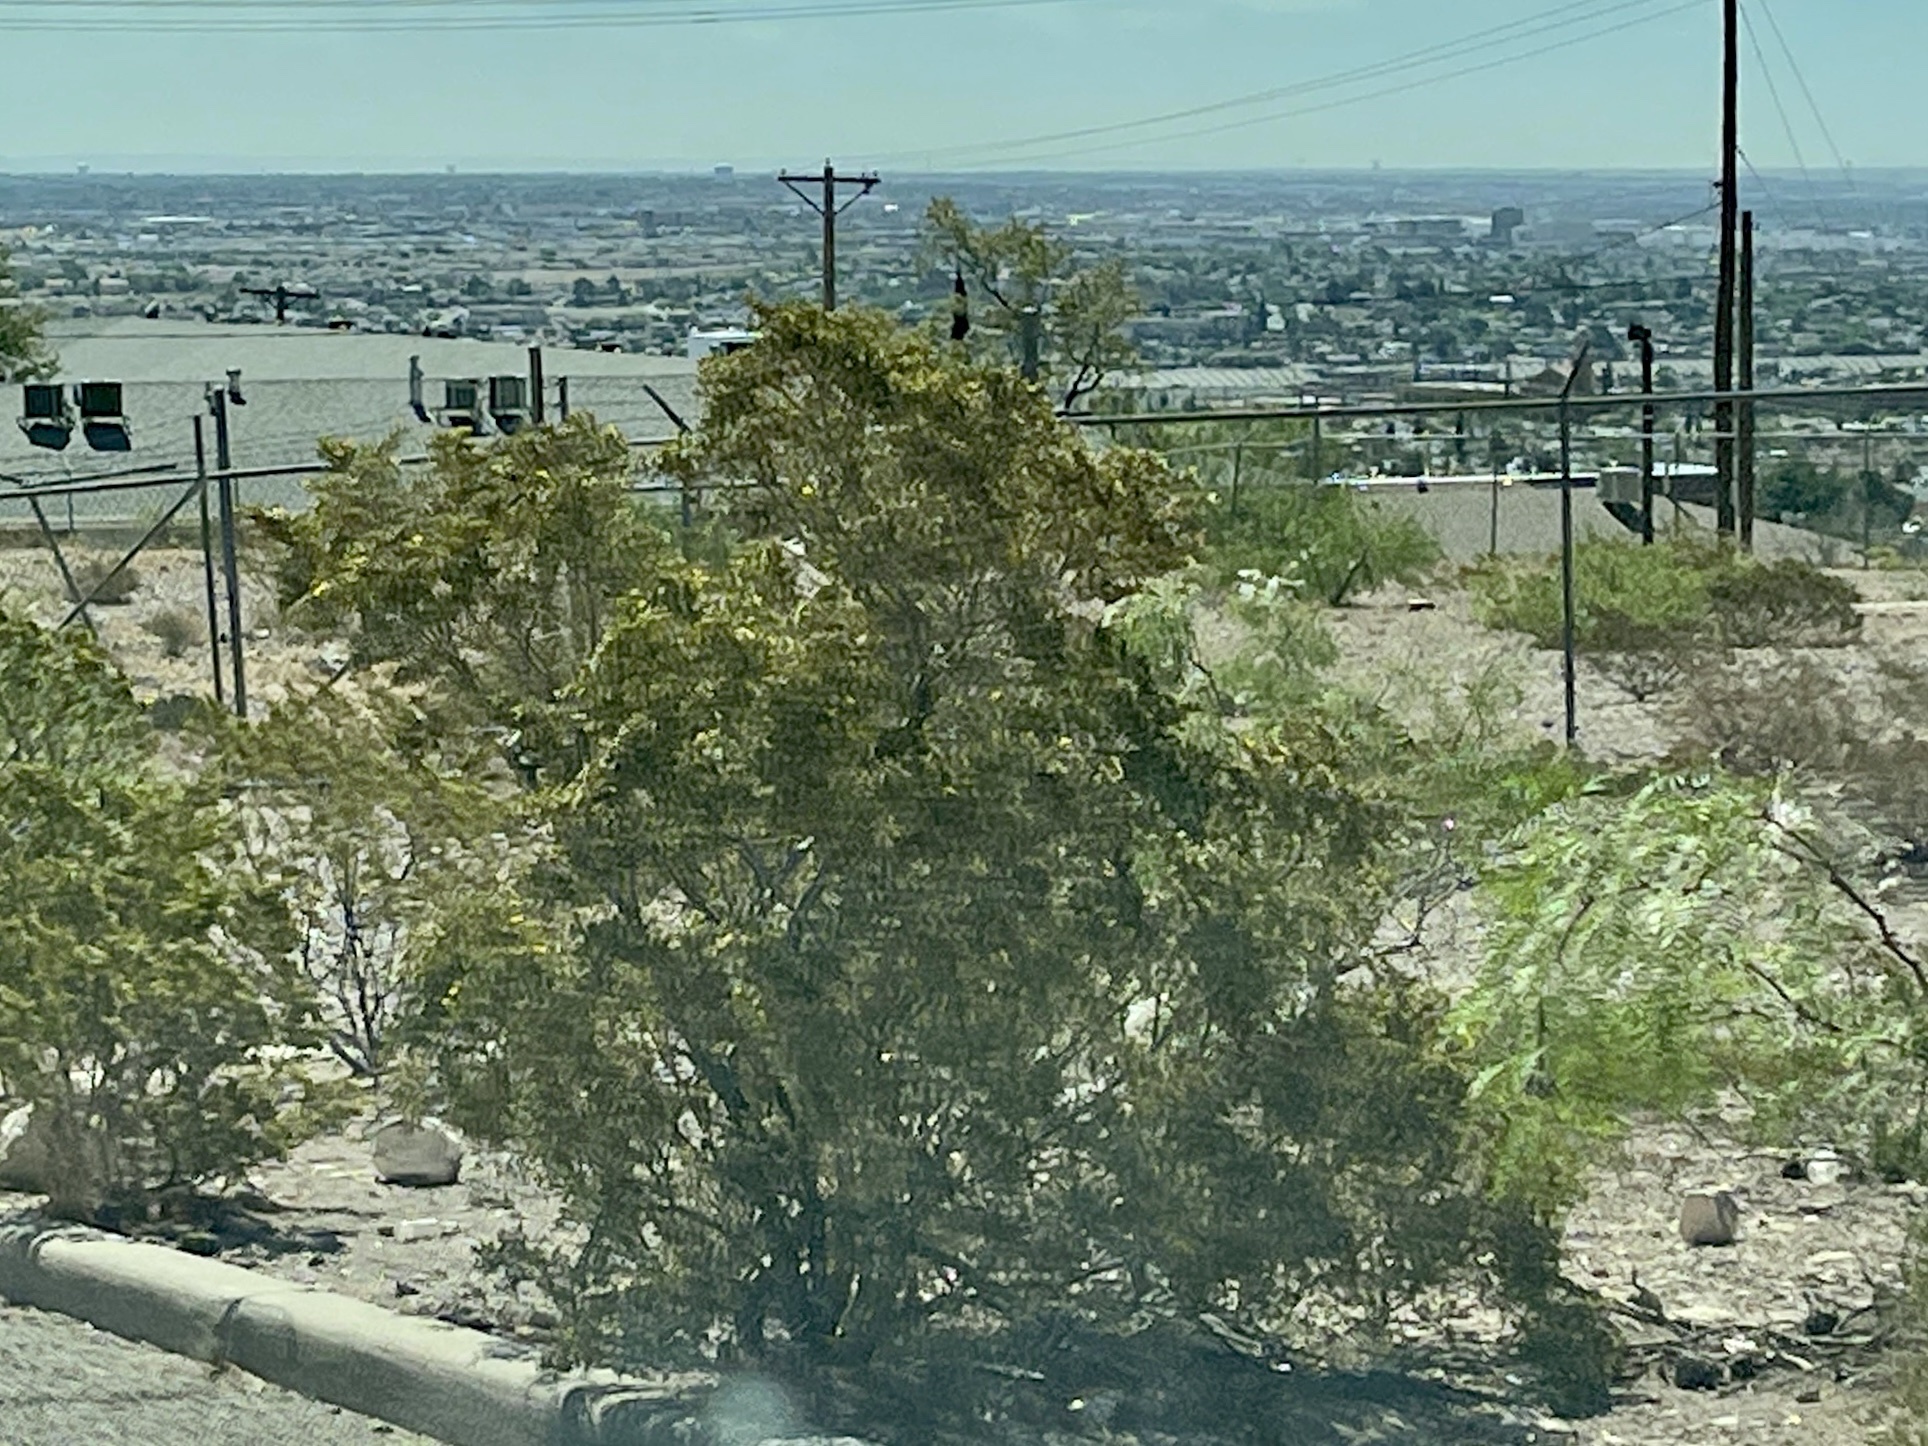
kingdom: Plantae
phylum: Tracheophyta
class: Magnoliopsida
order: Zygophyllales
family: Zygophyllaceae
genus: Larrea
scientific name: Larrea tridentata
